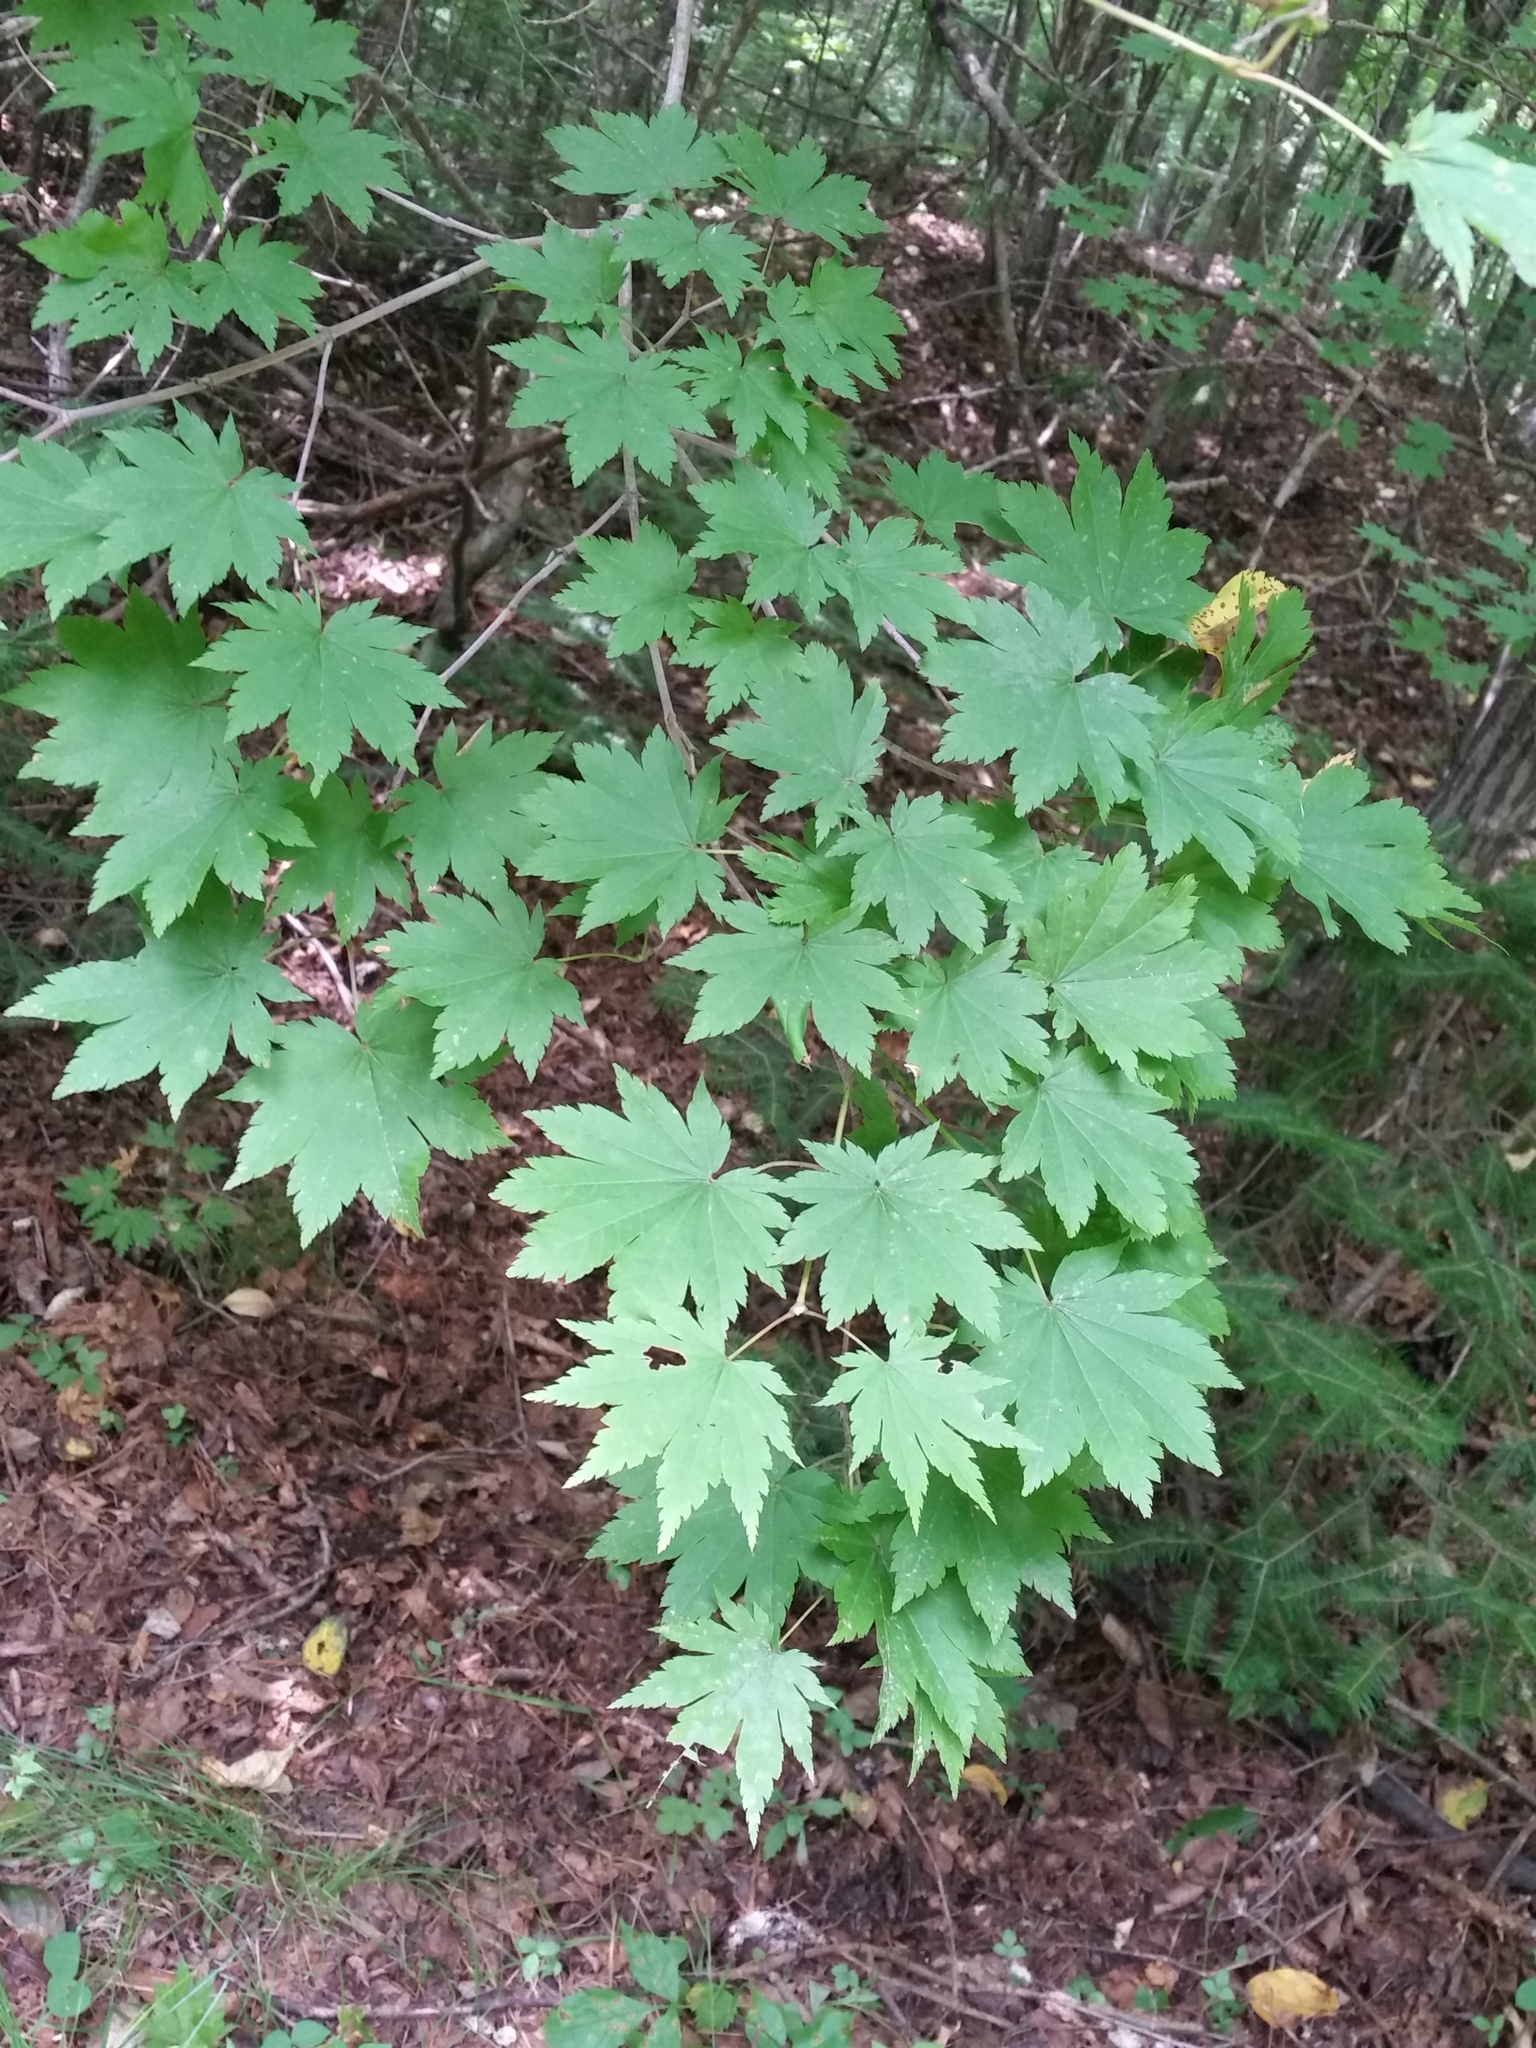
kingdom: Plantae
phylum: Tracheophyta
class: Magnoliopsida
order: Sapindales
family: Sapindaceae
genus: Acer
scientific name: Acer pseudosieboldianum
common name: Korean maple
